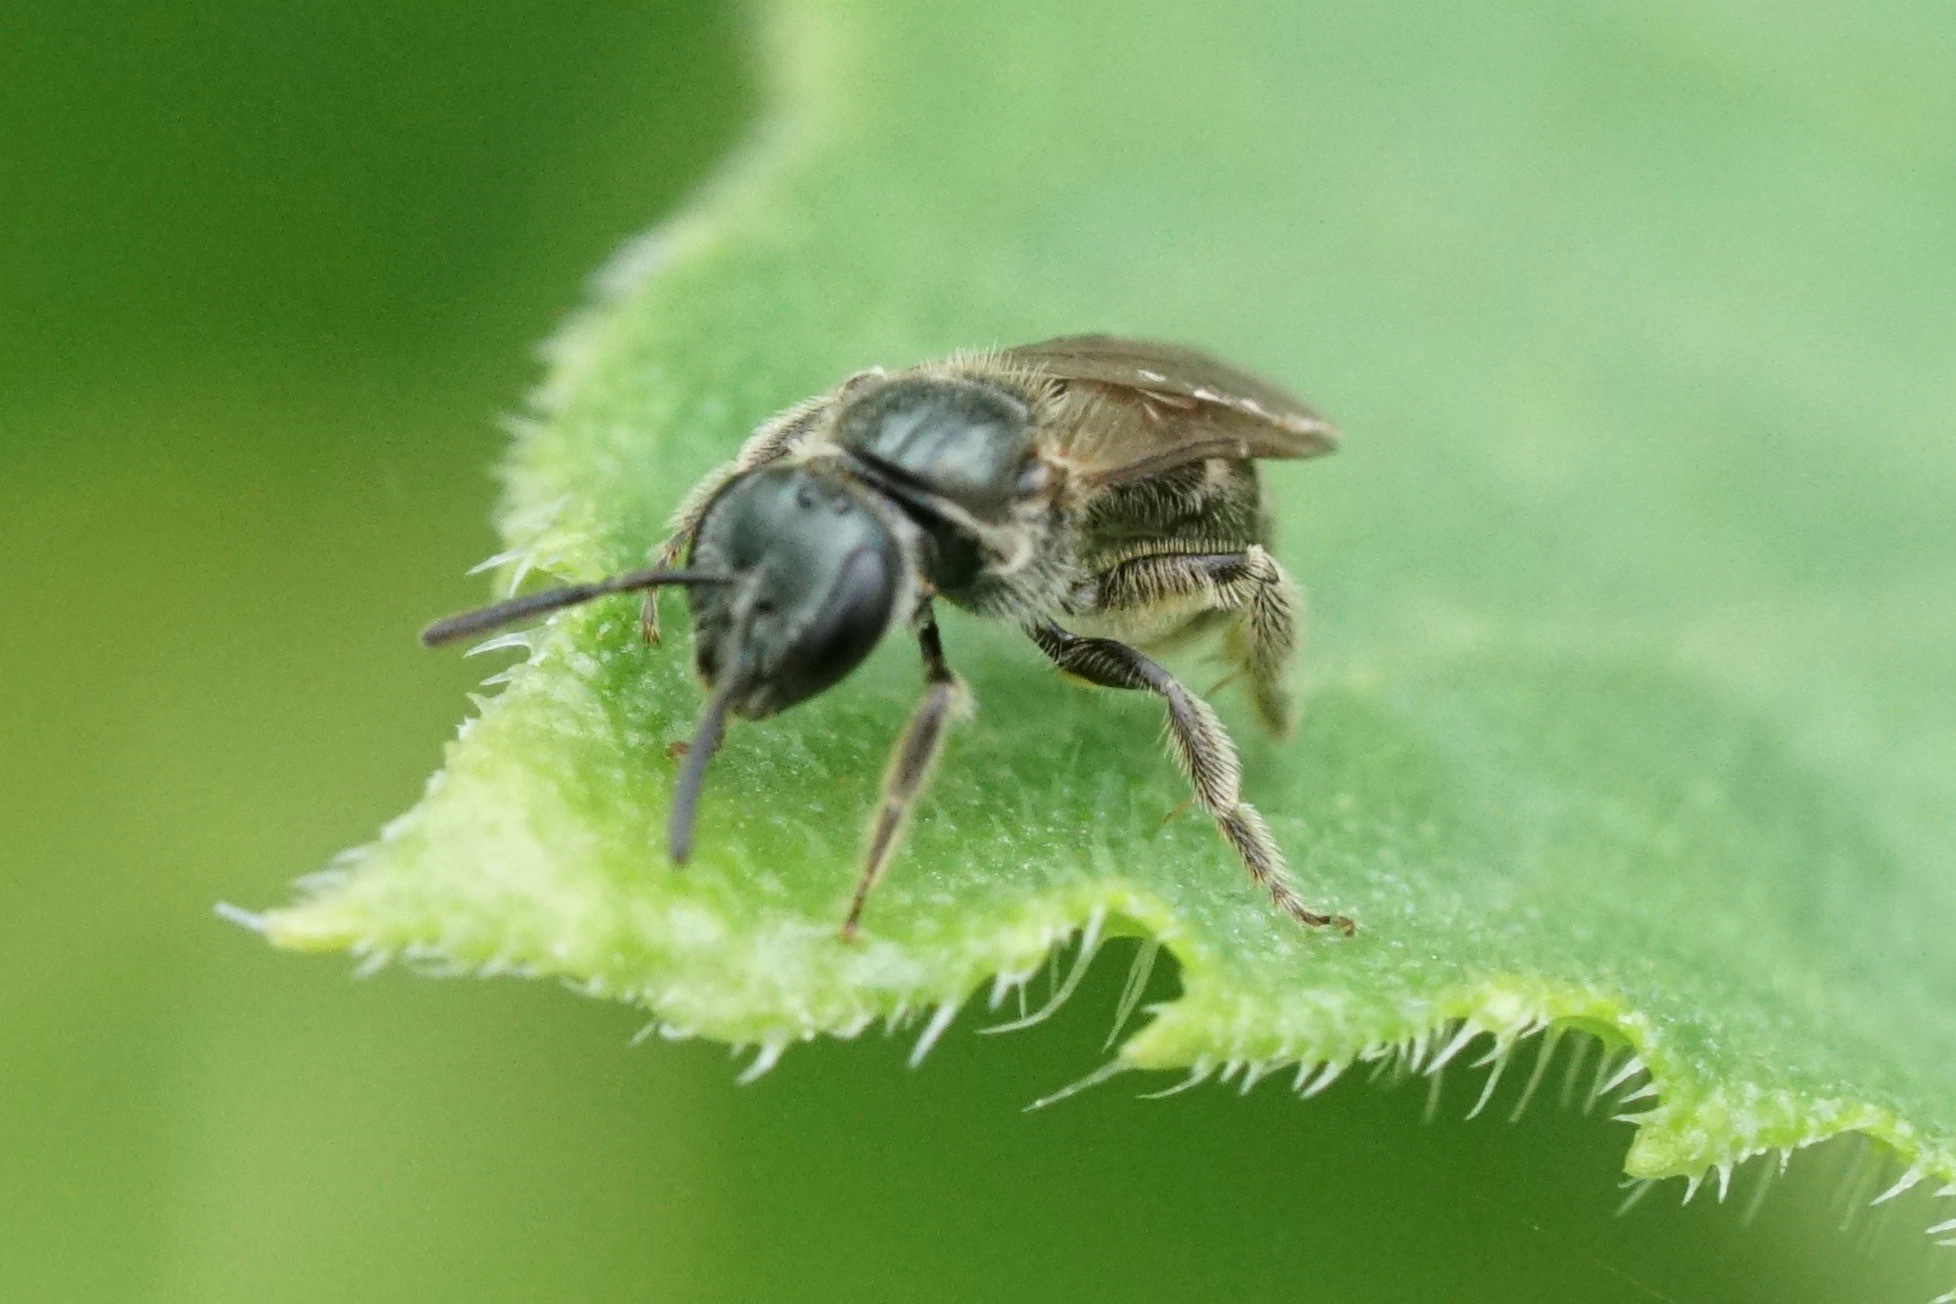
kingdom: Animalia
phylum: Arthropoda
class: Insecta
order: Hymenoptera
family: Halictidae
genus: Dialictus
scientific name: Dialictus
